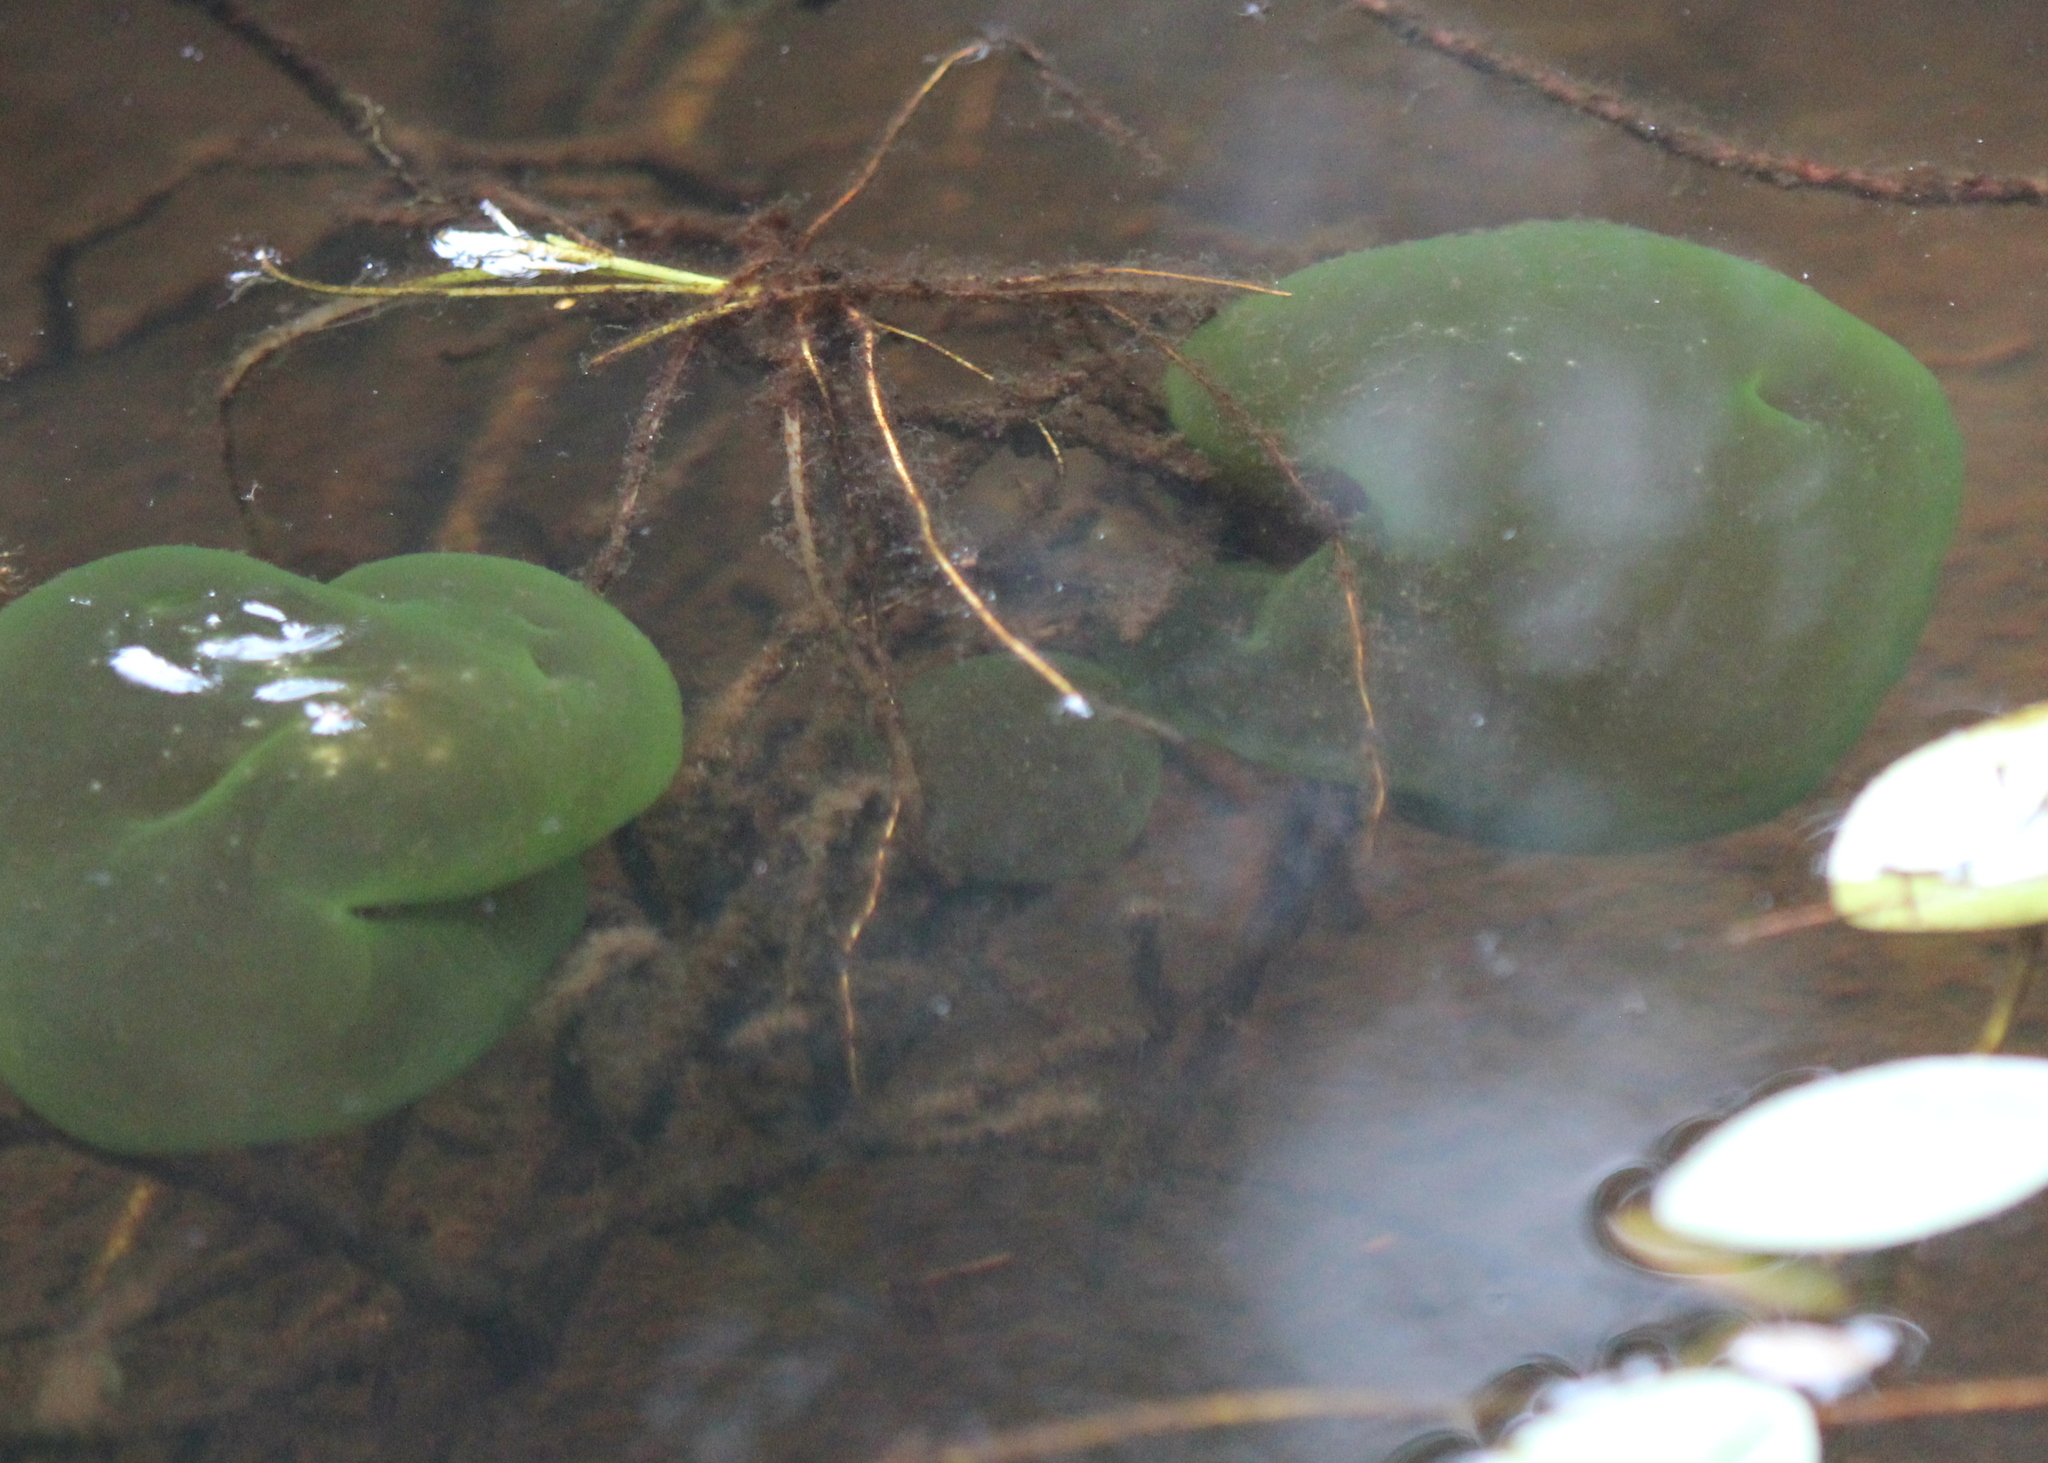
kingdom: Chromista
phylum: Ciliophora
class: Oligohymenophorea
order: Peritrichida
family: Ophrydiidae
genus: Ophrydium
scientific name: Ophrydium versatile
